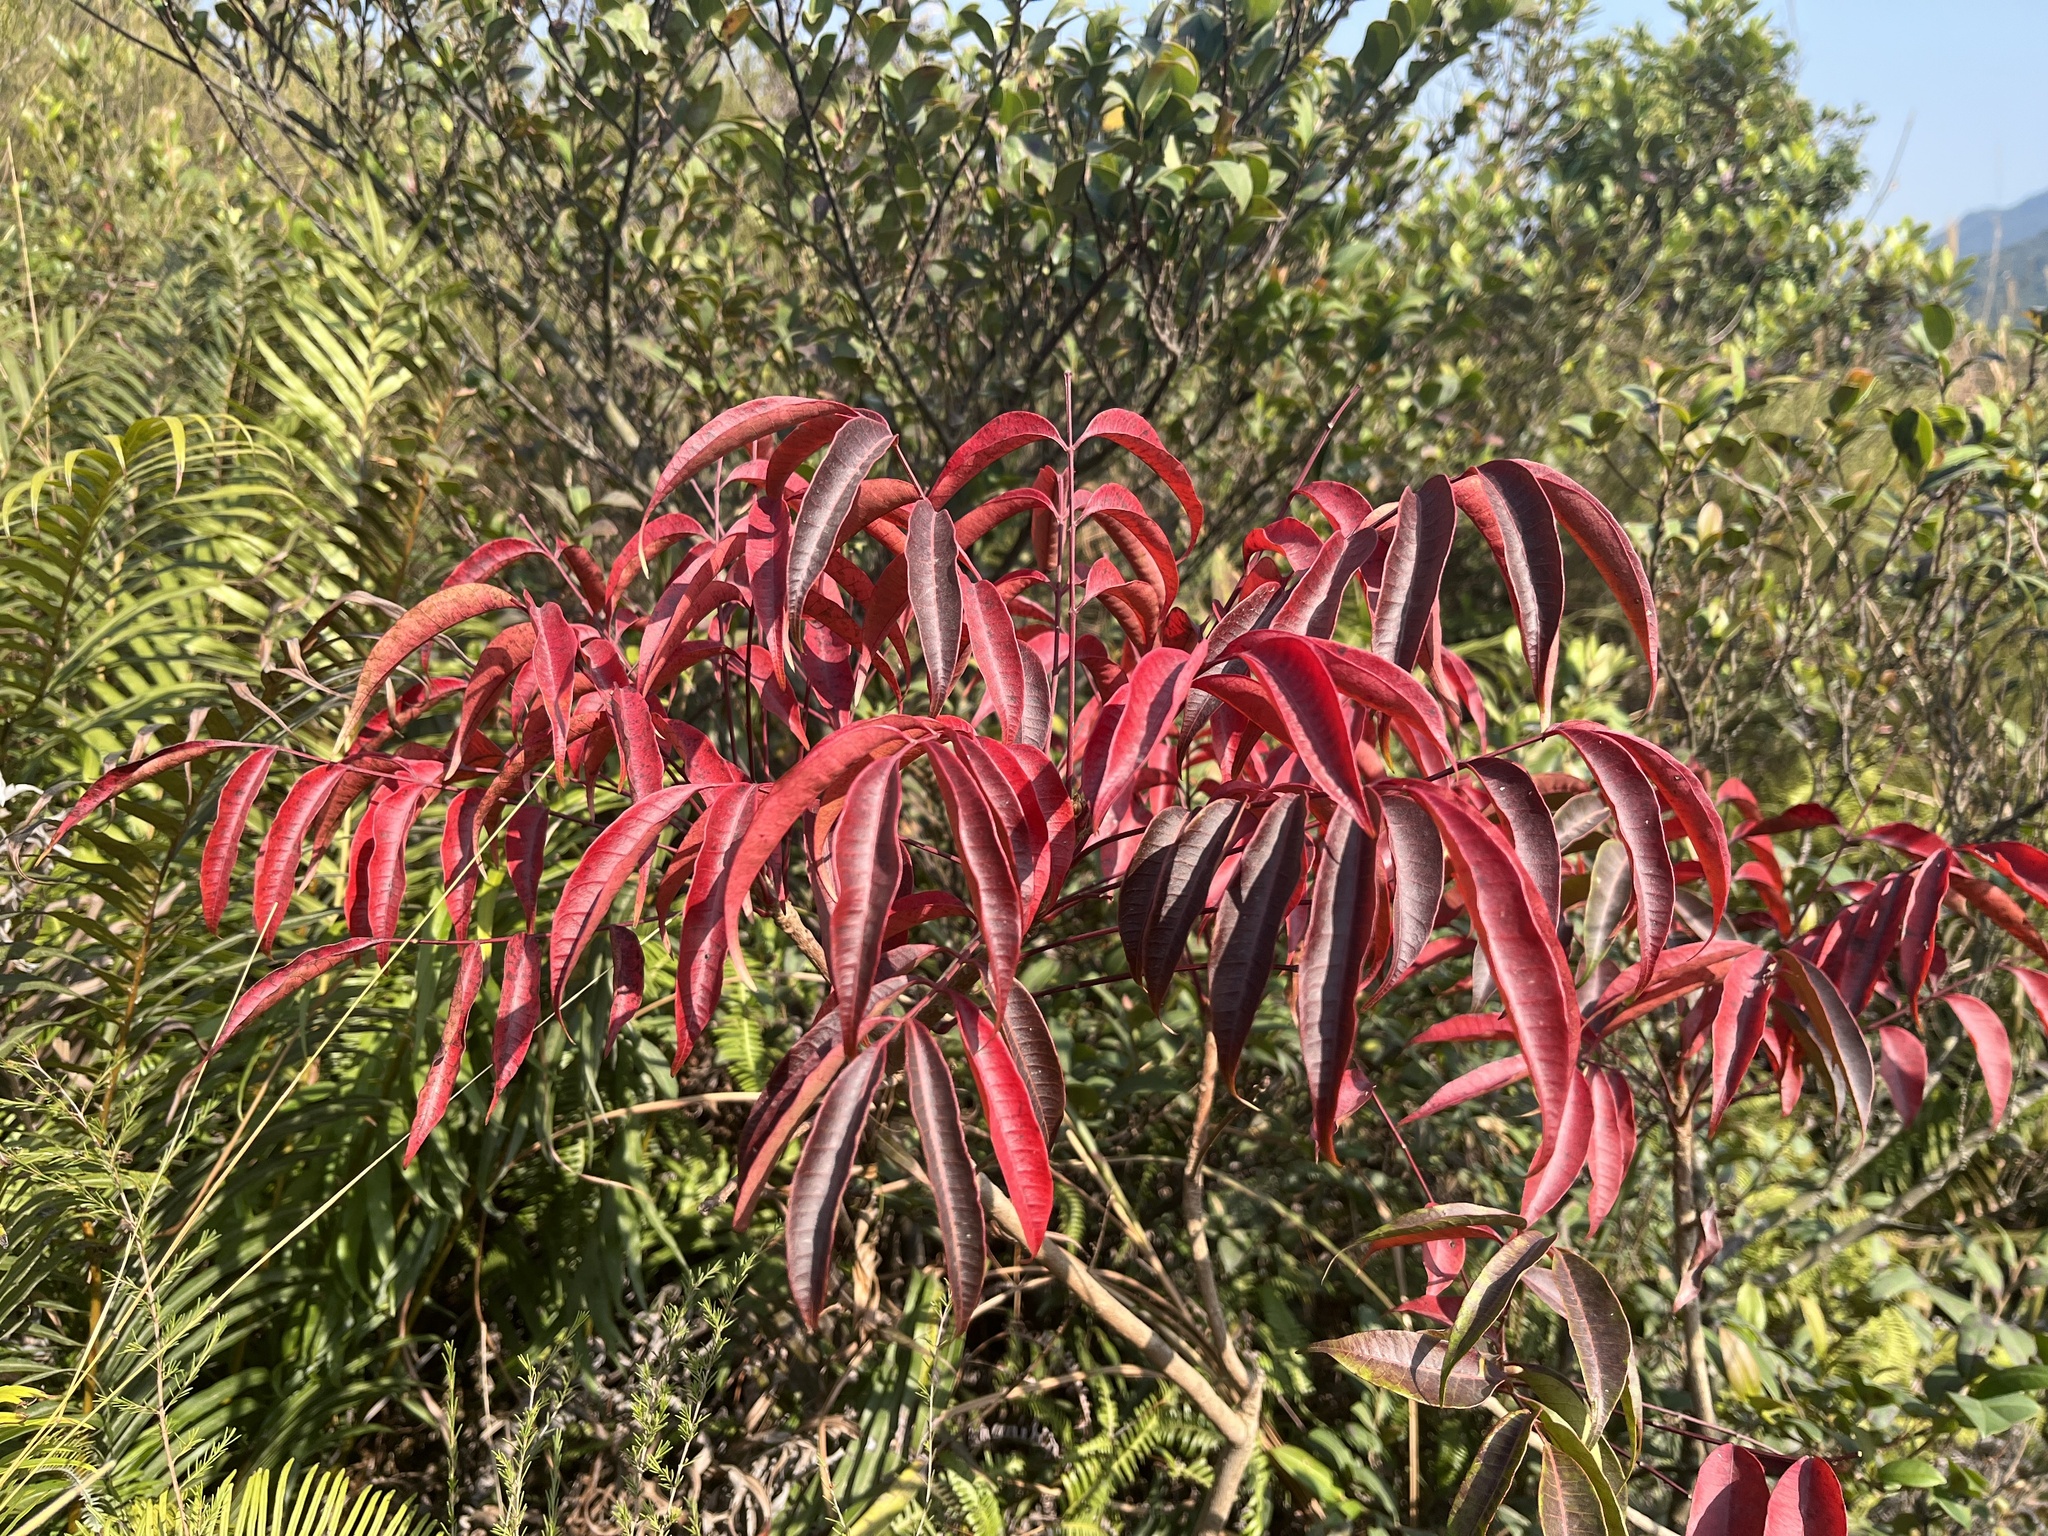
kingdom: Plantae
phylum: Tracheophyta
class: Magnoliopsida
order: Sapindales
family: Anacardiaceae
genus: Toxicodendron
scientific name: Toxicodendron succedaneum
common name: Wax tree
